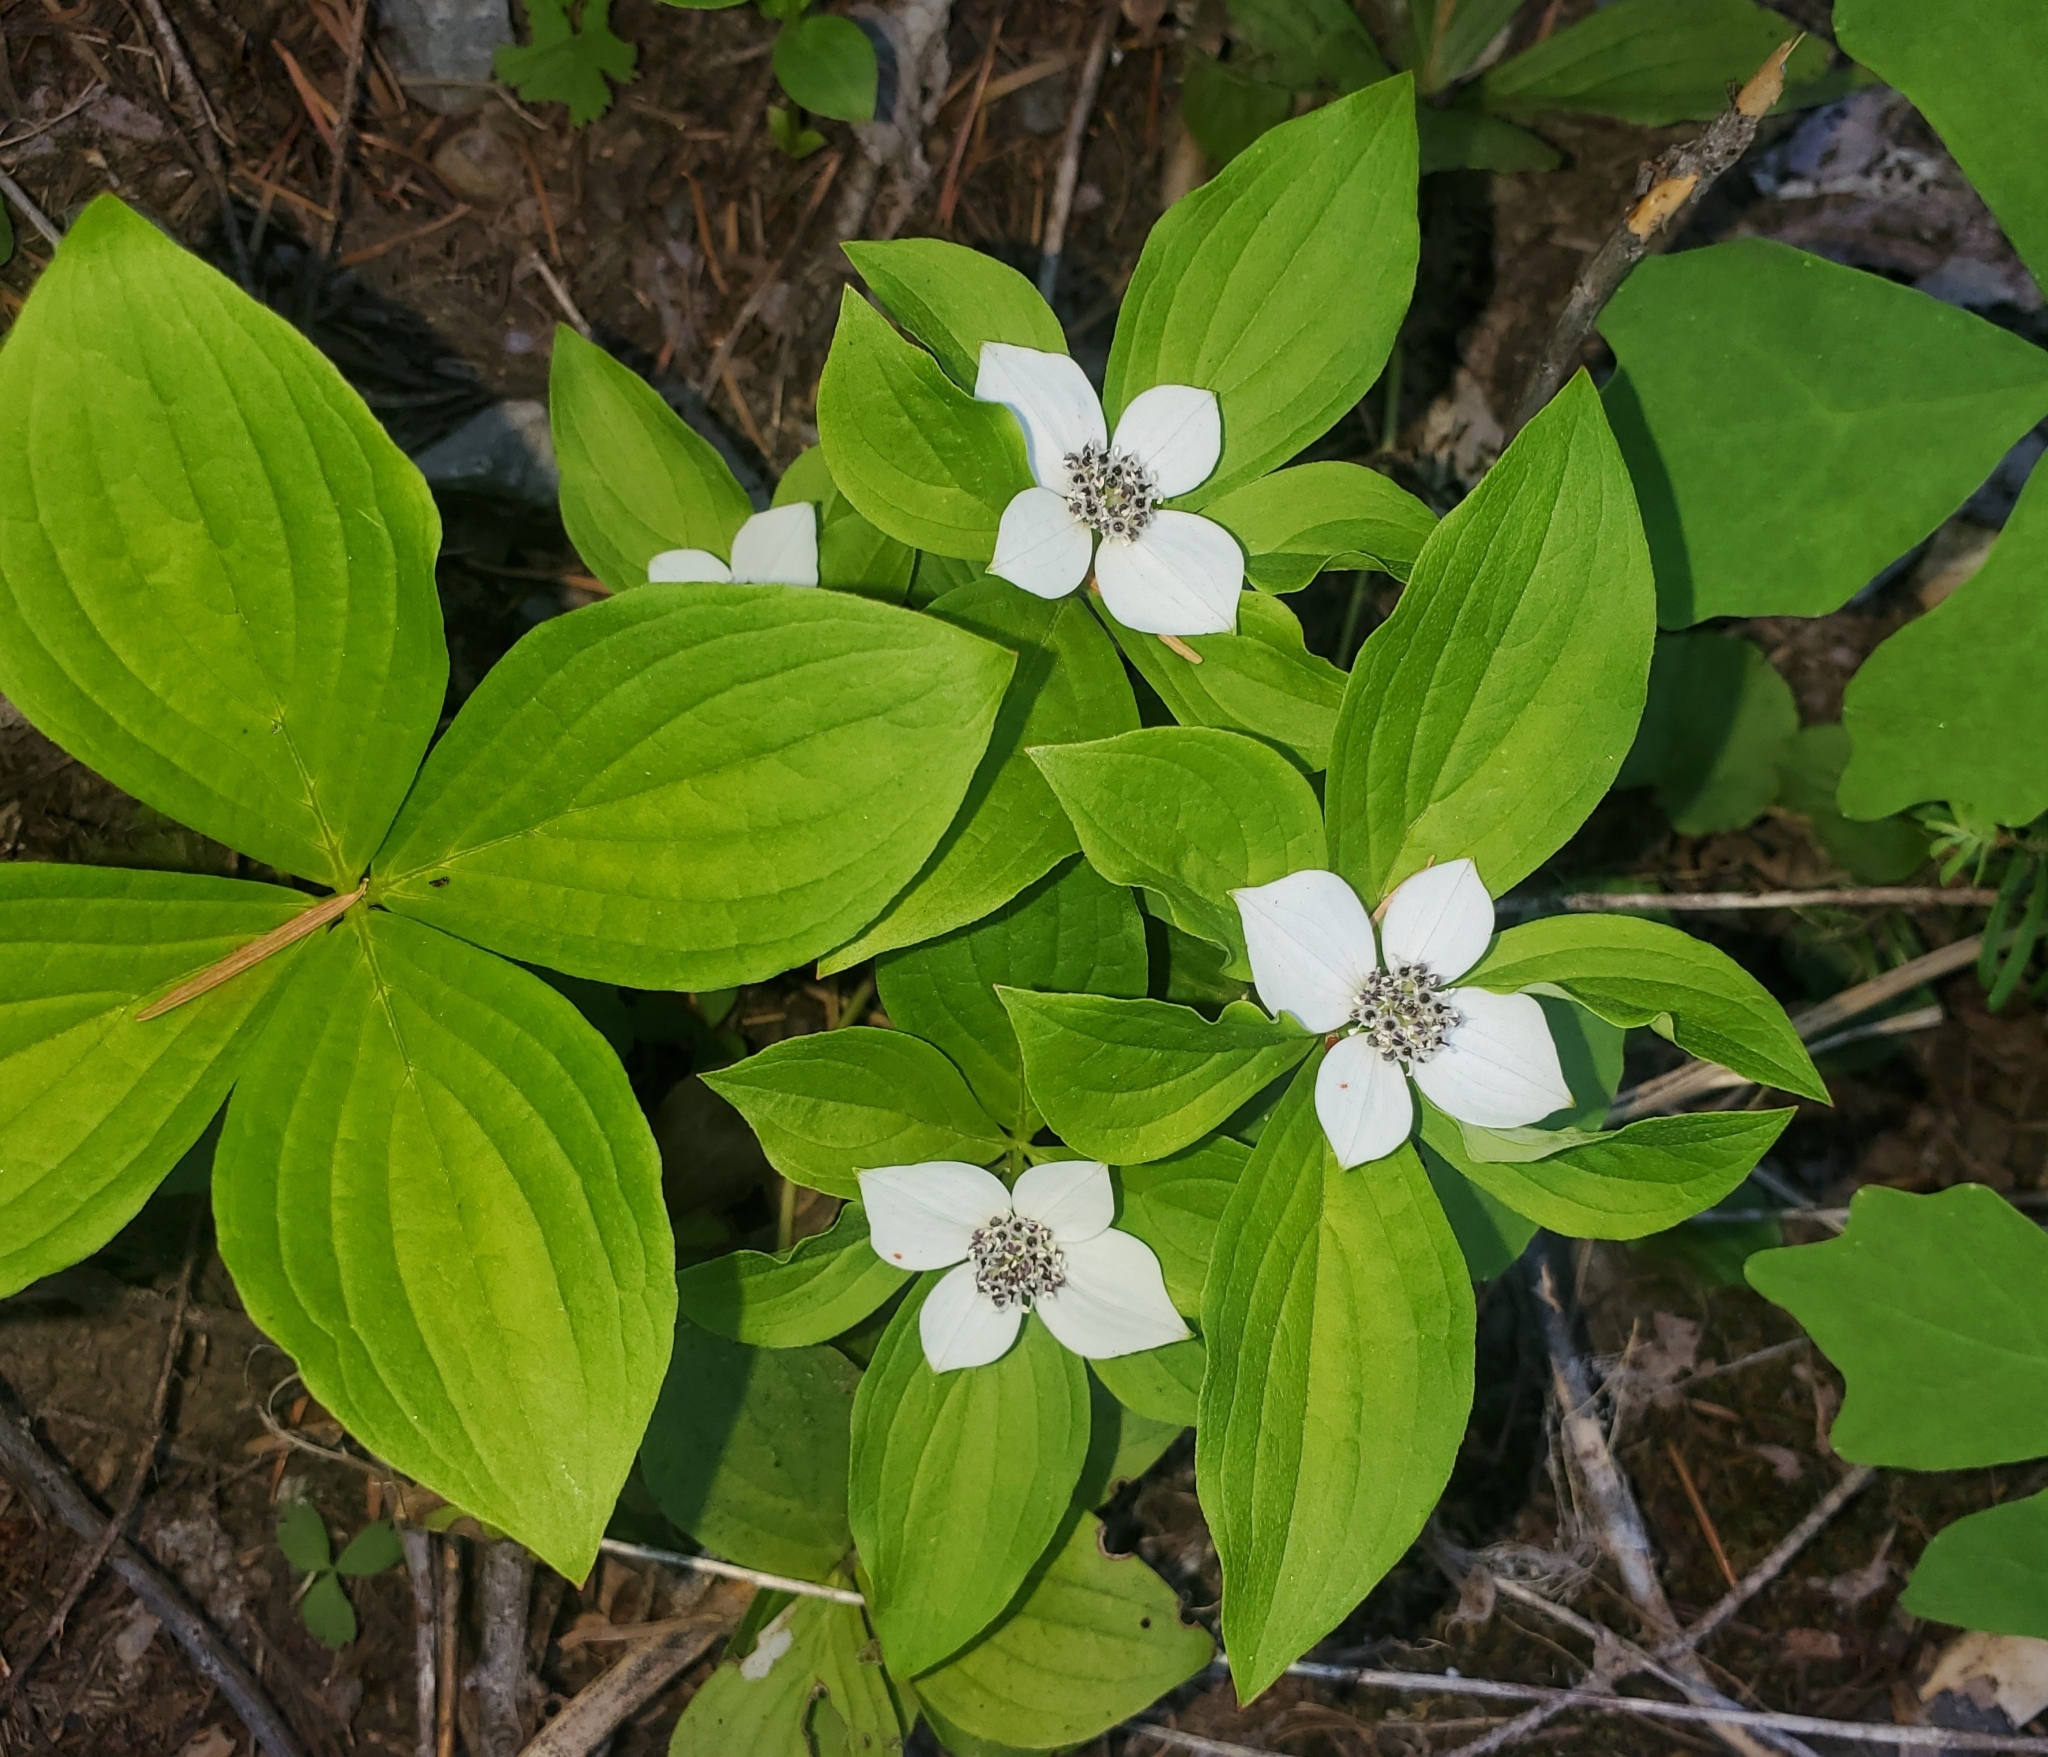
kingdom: Plantae
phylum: Tracheophyta
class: Magnoliopsida
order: Cornales
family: Cornaceae
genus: Cornus
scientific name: Cornus unalaschkensis
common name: Alaska bunchberry
